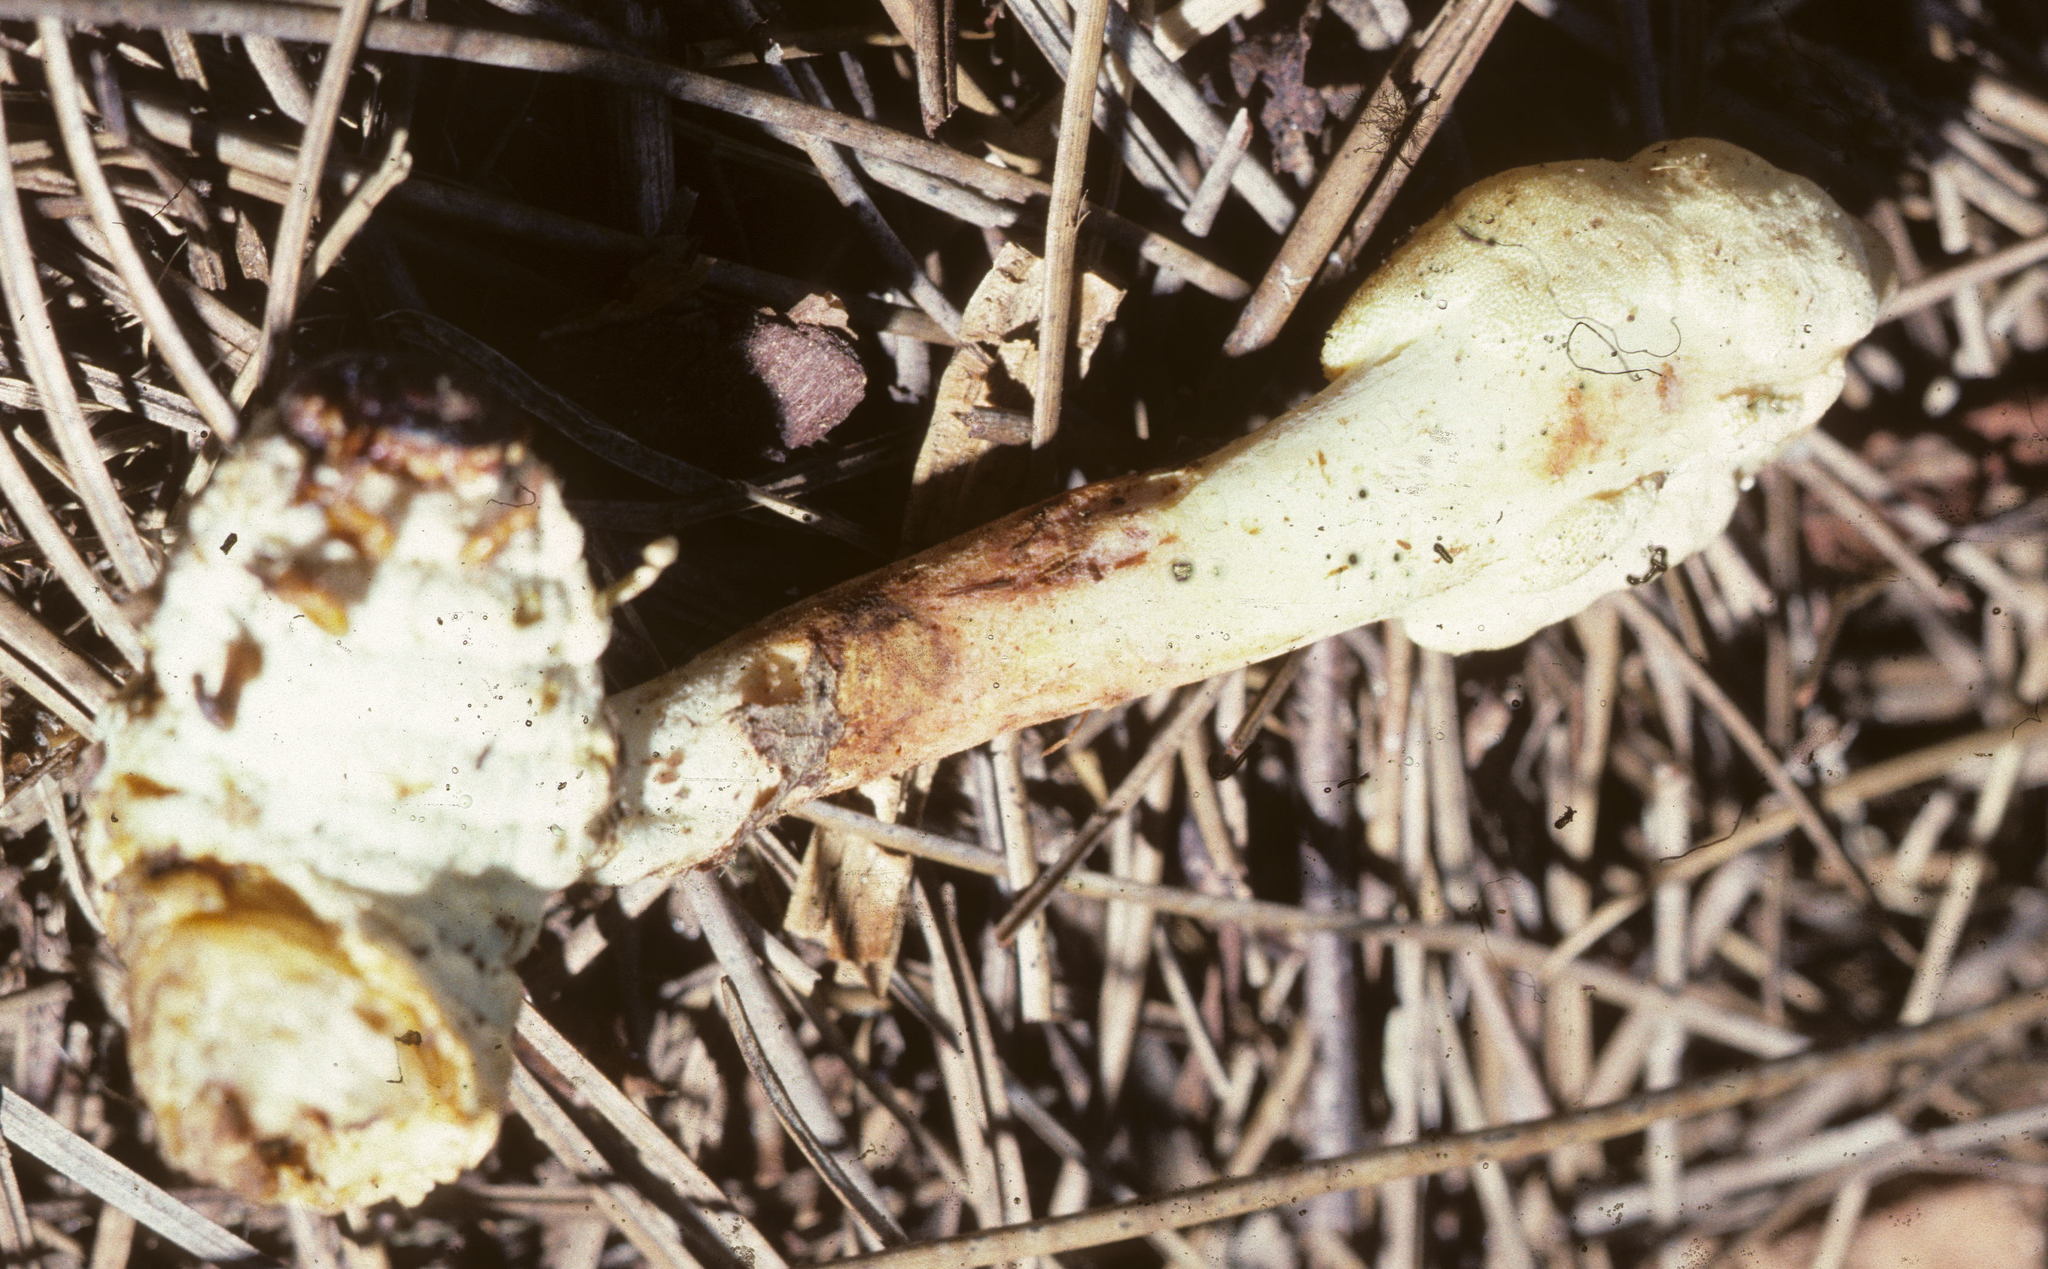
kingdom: Fungi
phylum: Ascomycota
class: Sordariomycetes
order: Hypocreales
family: Ophiocordycipitaceae
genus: Ophiocordyceps
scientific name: Ophiocordyceps melolonthae
